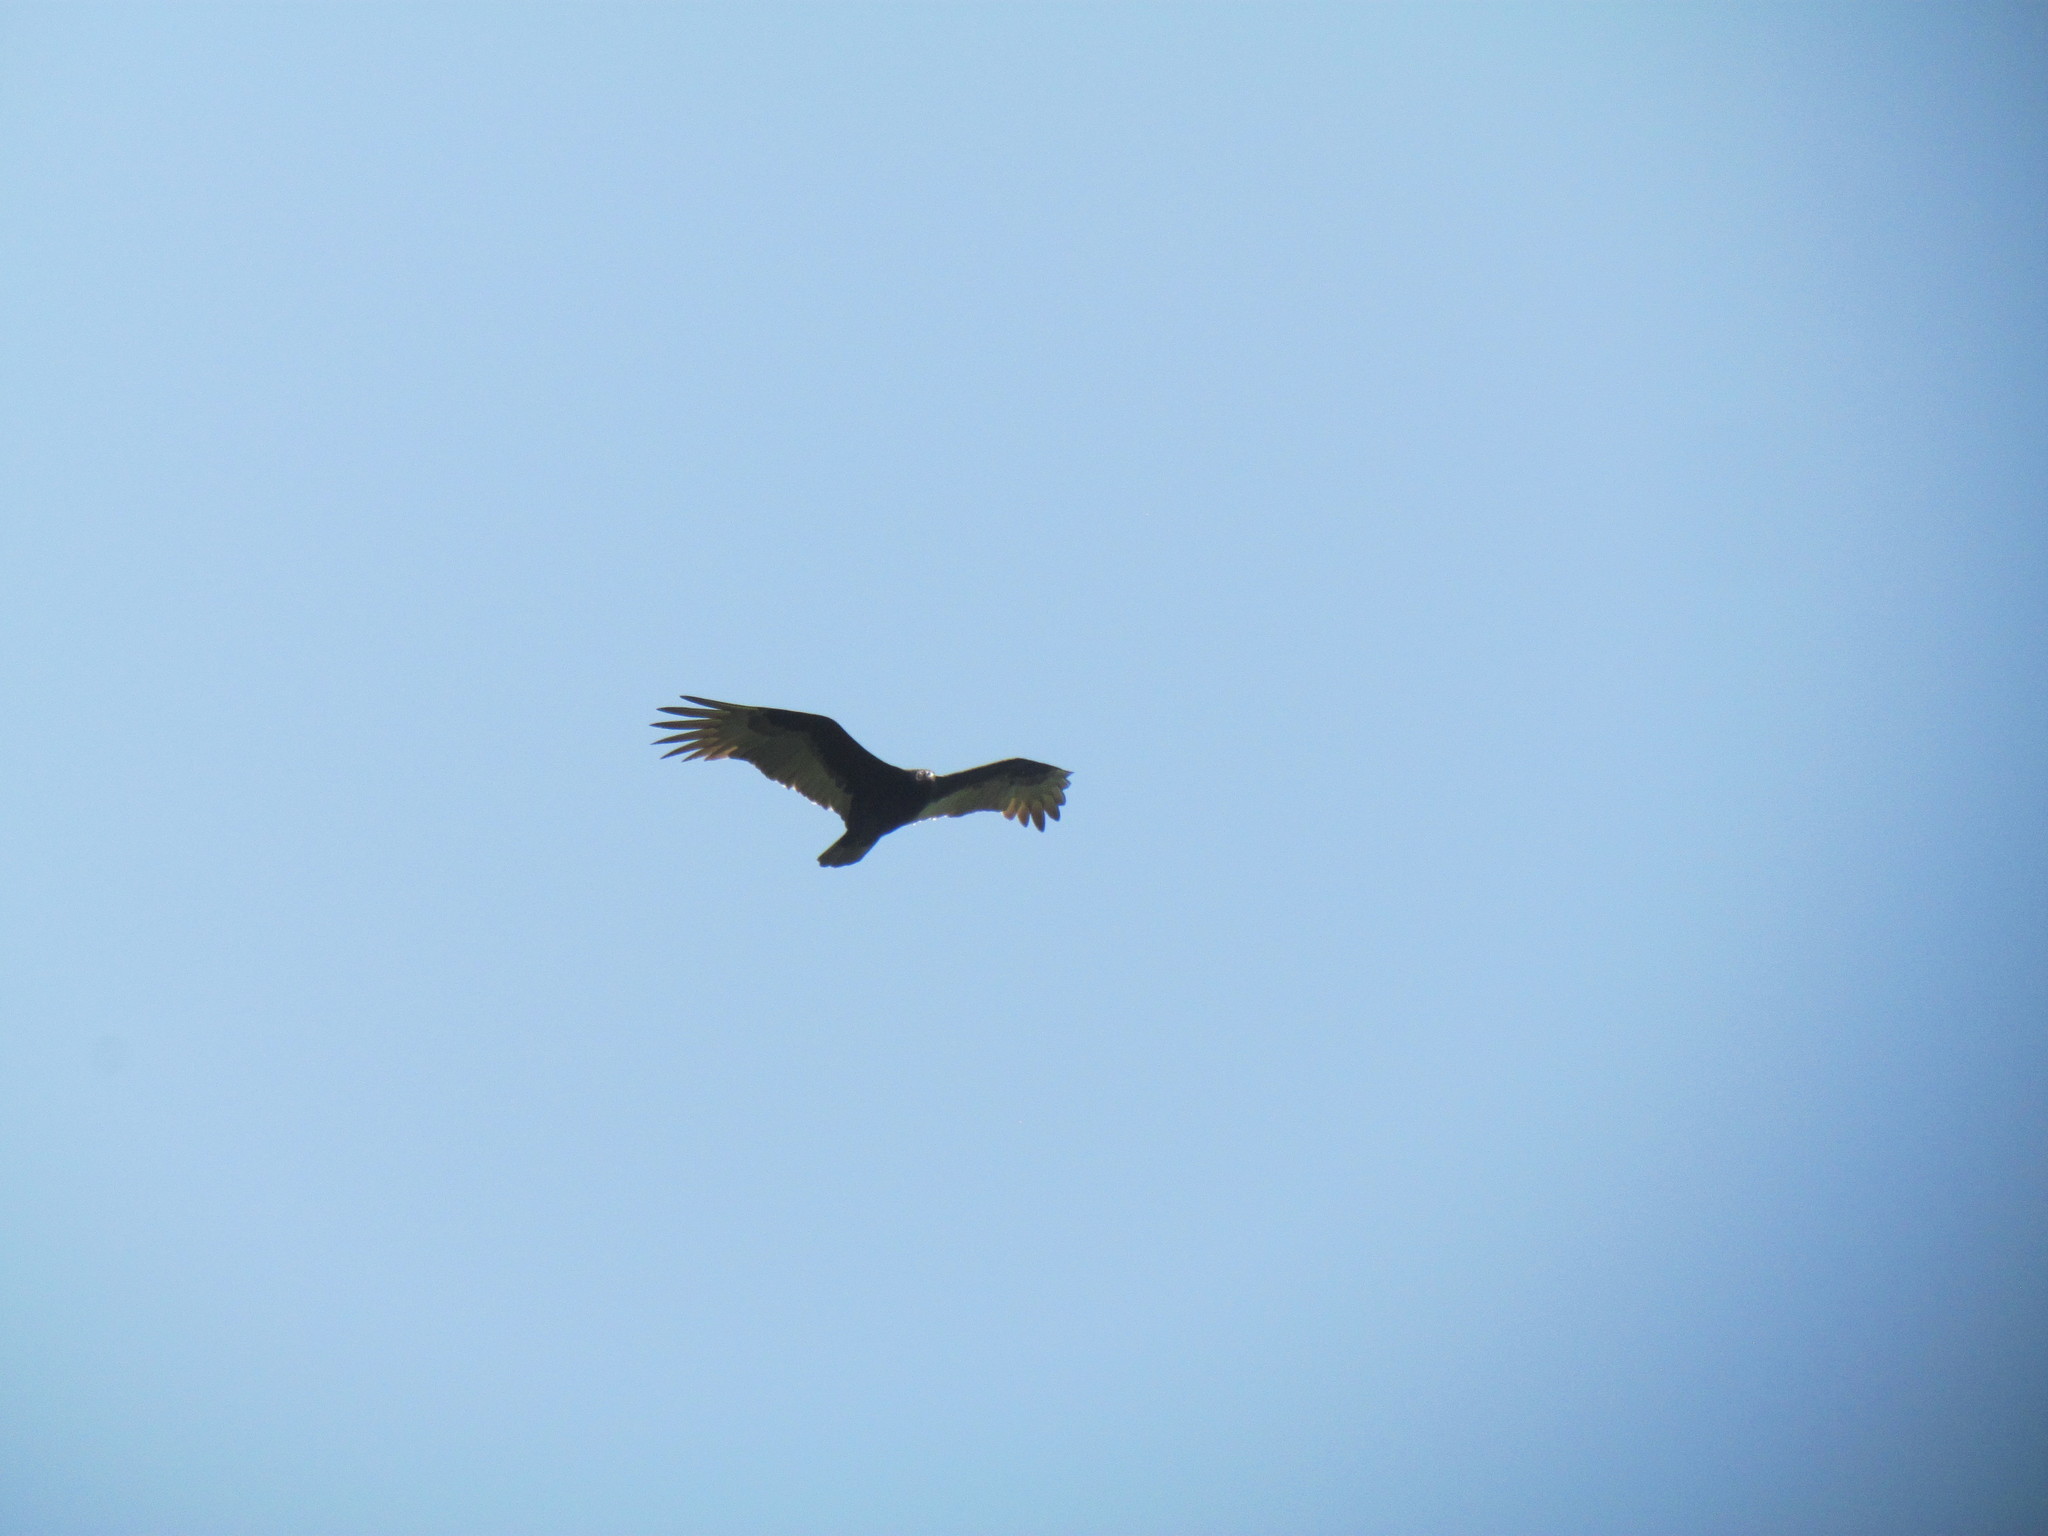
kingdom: Animalia
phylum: Chordata
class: Aves
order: Accipitriformes
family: Cathartidae
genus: Cathartes
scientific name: Cathartes aura
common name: Turkey vulture
